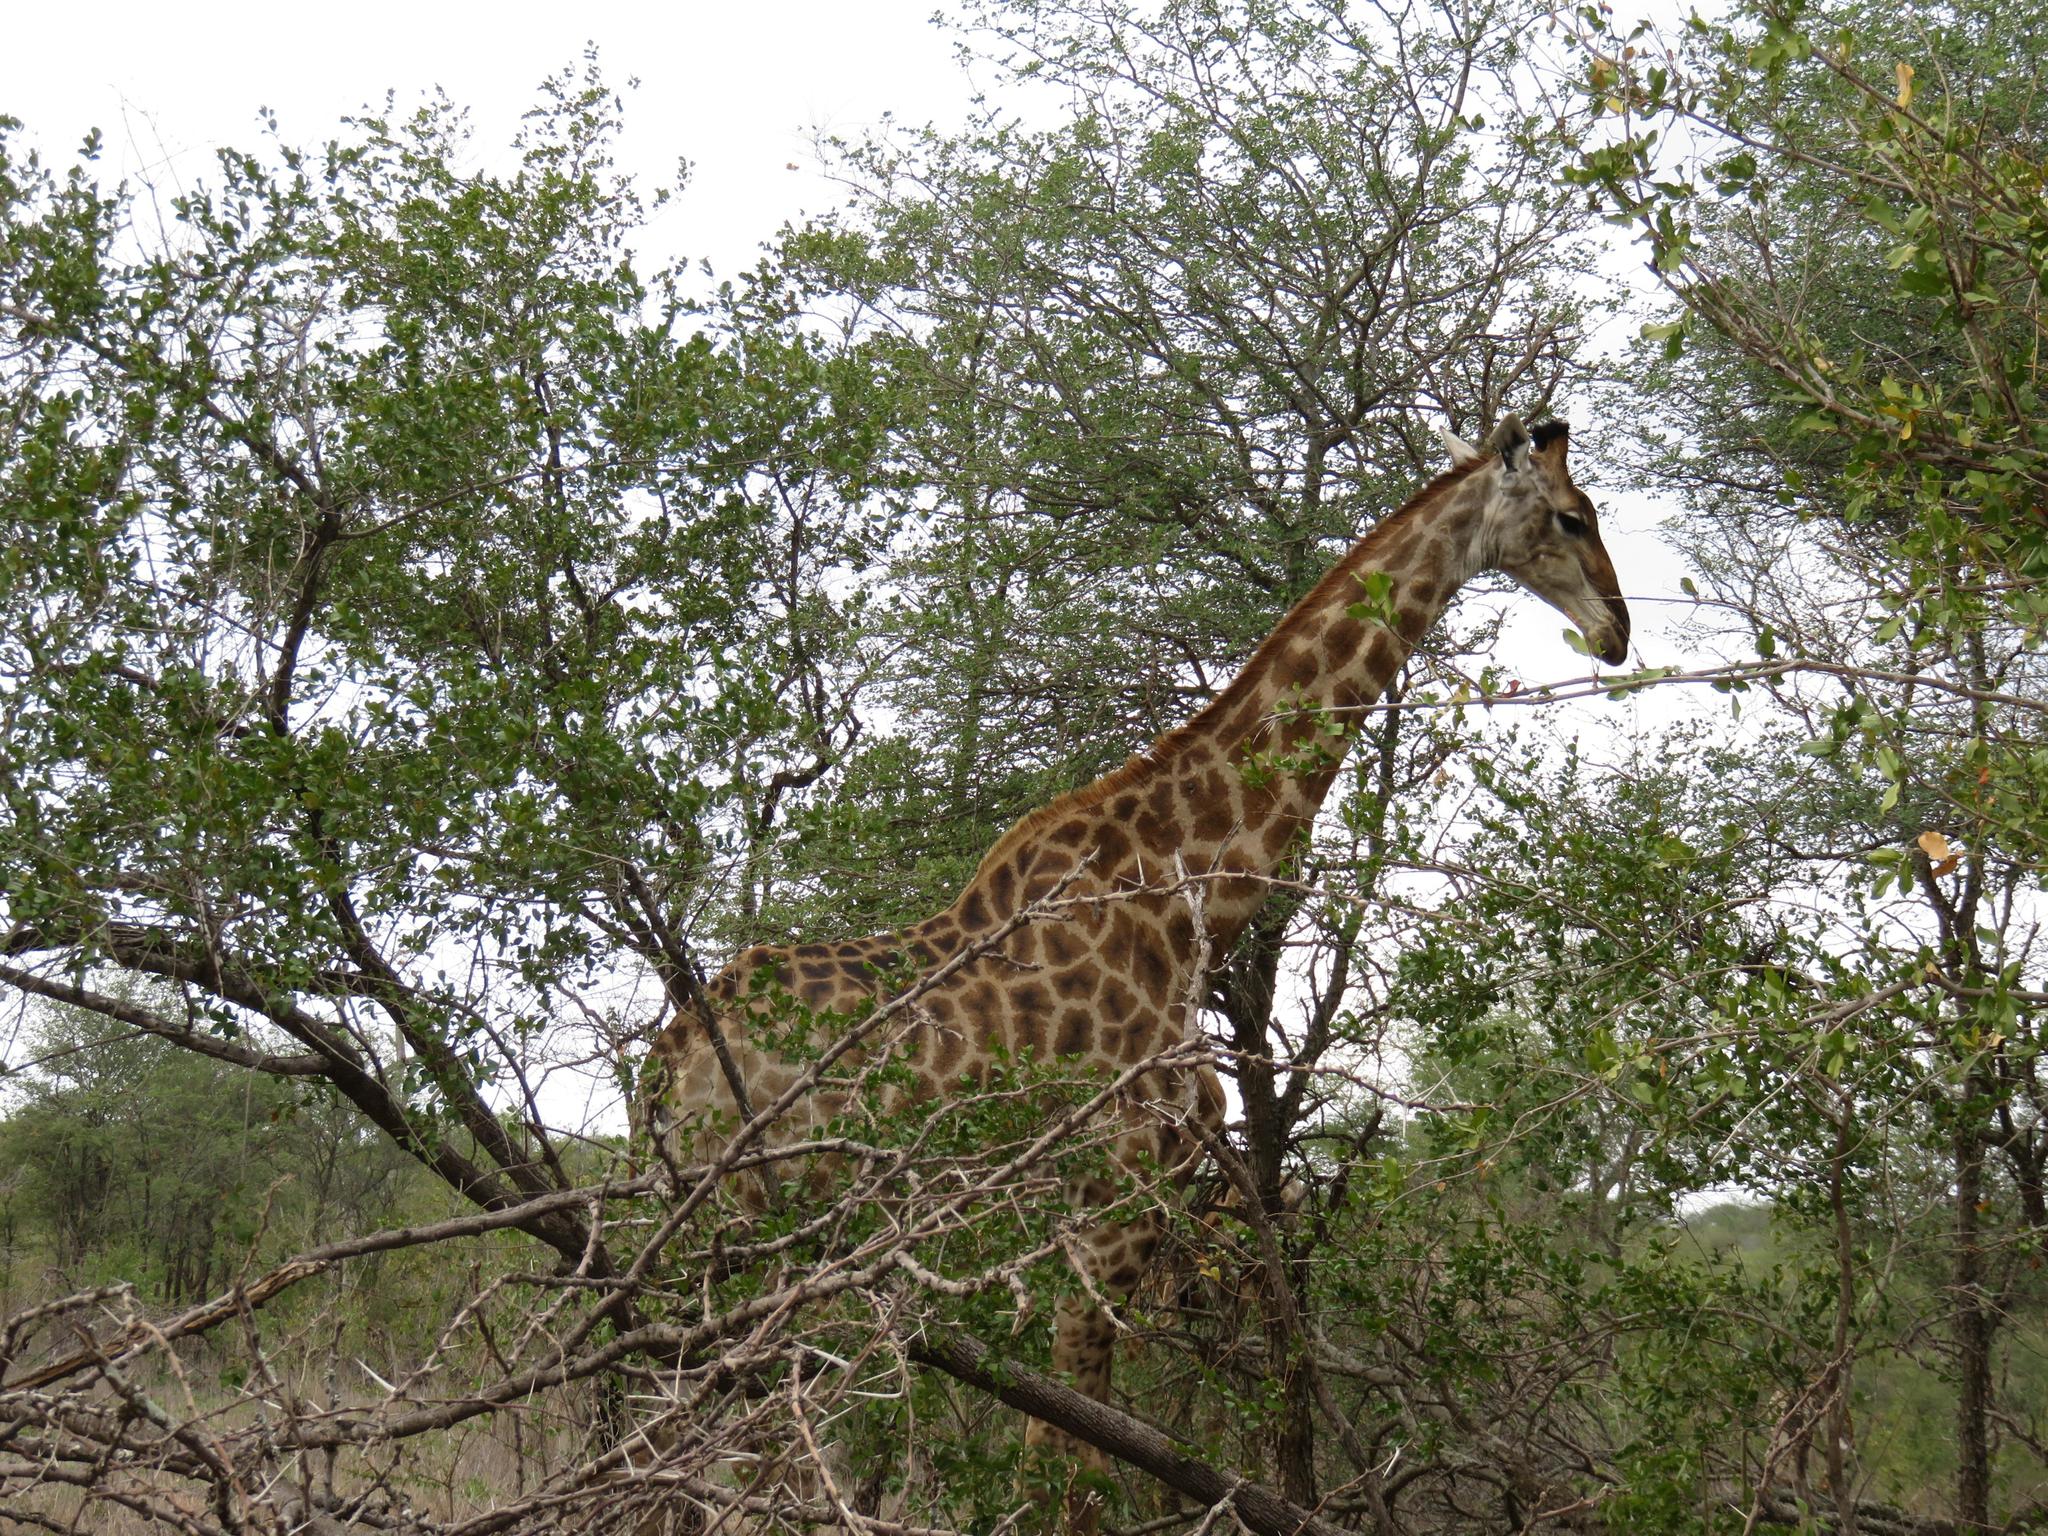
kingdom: Animalia
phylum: Chordata
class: Mammalia
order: Artiodactyla
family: Giraffidae
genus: Giraffa
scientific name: Giraffa giraffa
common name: Southern giraffe
